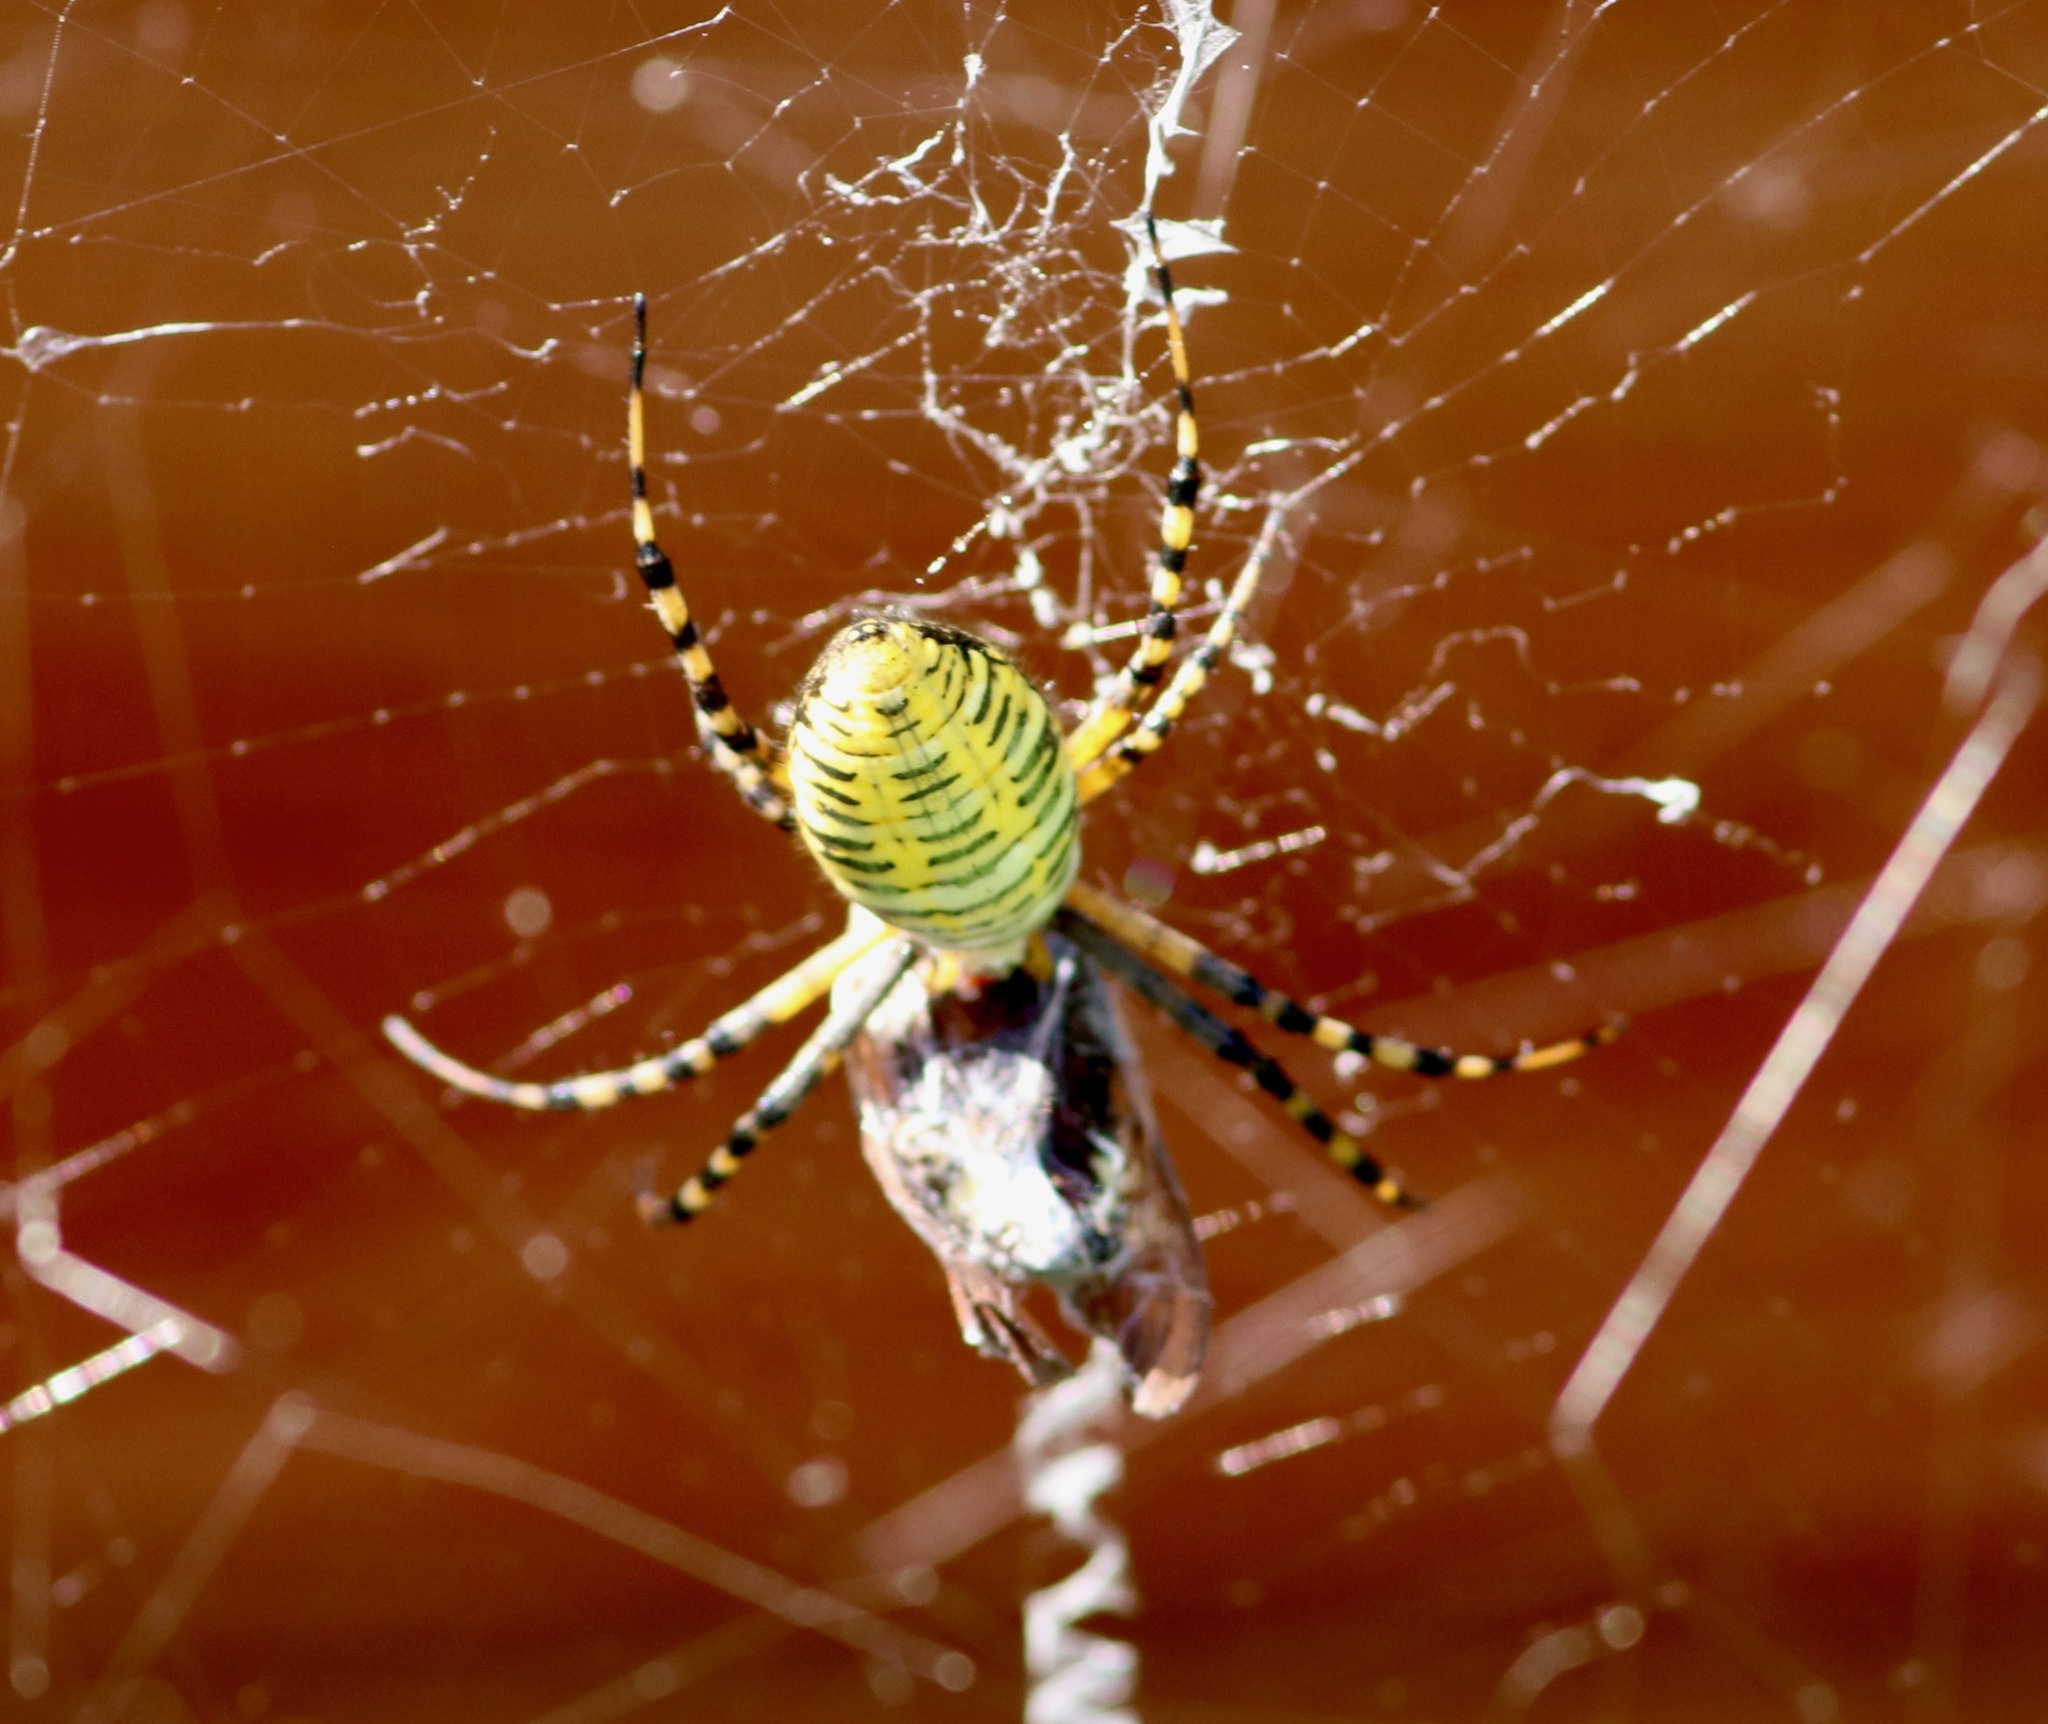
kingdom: Animalia
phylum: Arthropoda
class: Arachnida
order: Araneae
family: Araneidae
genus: Argiope
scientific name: Argiope trifasciata
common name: Banded garden spider
